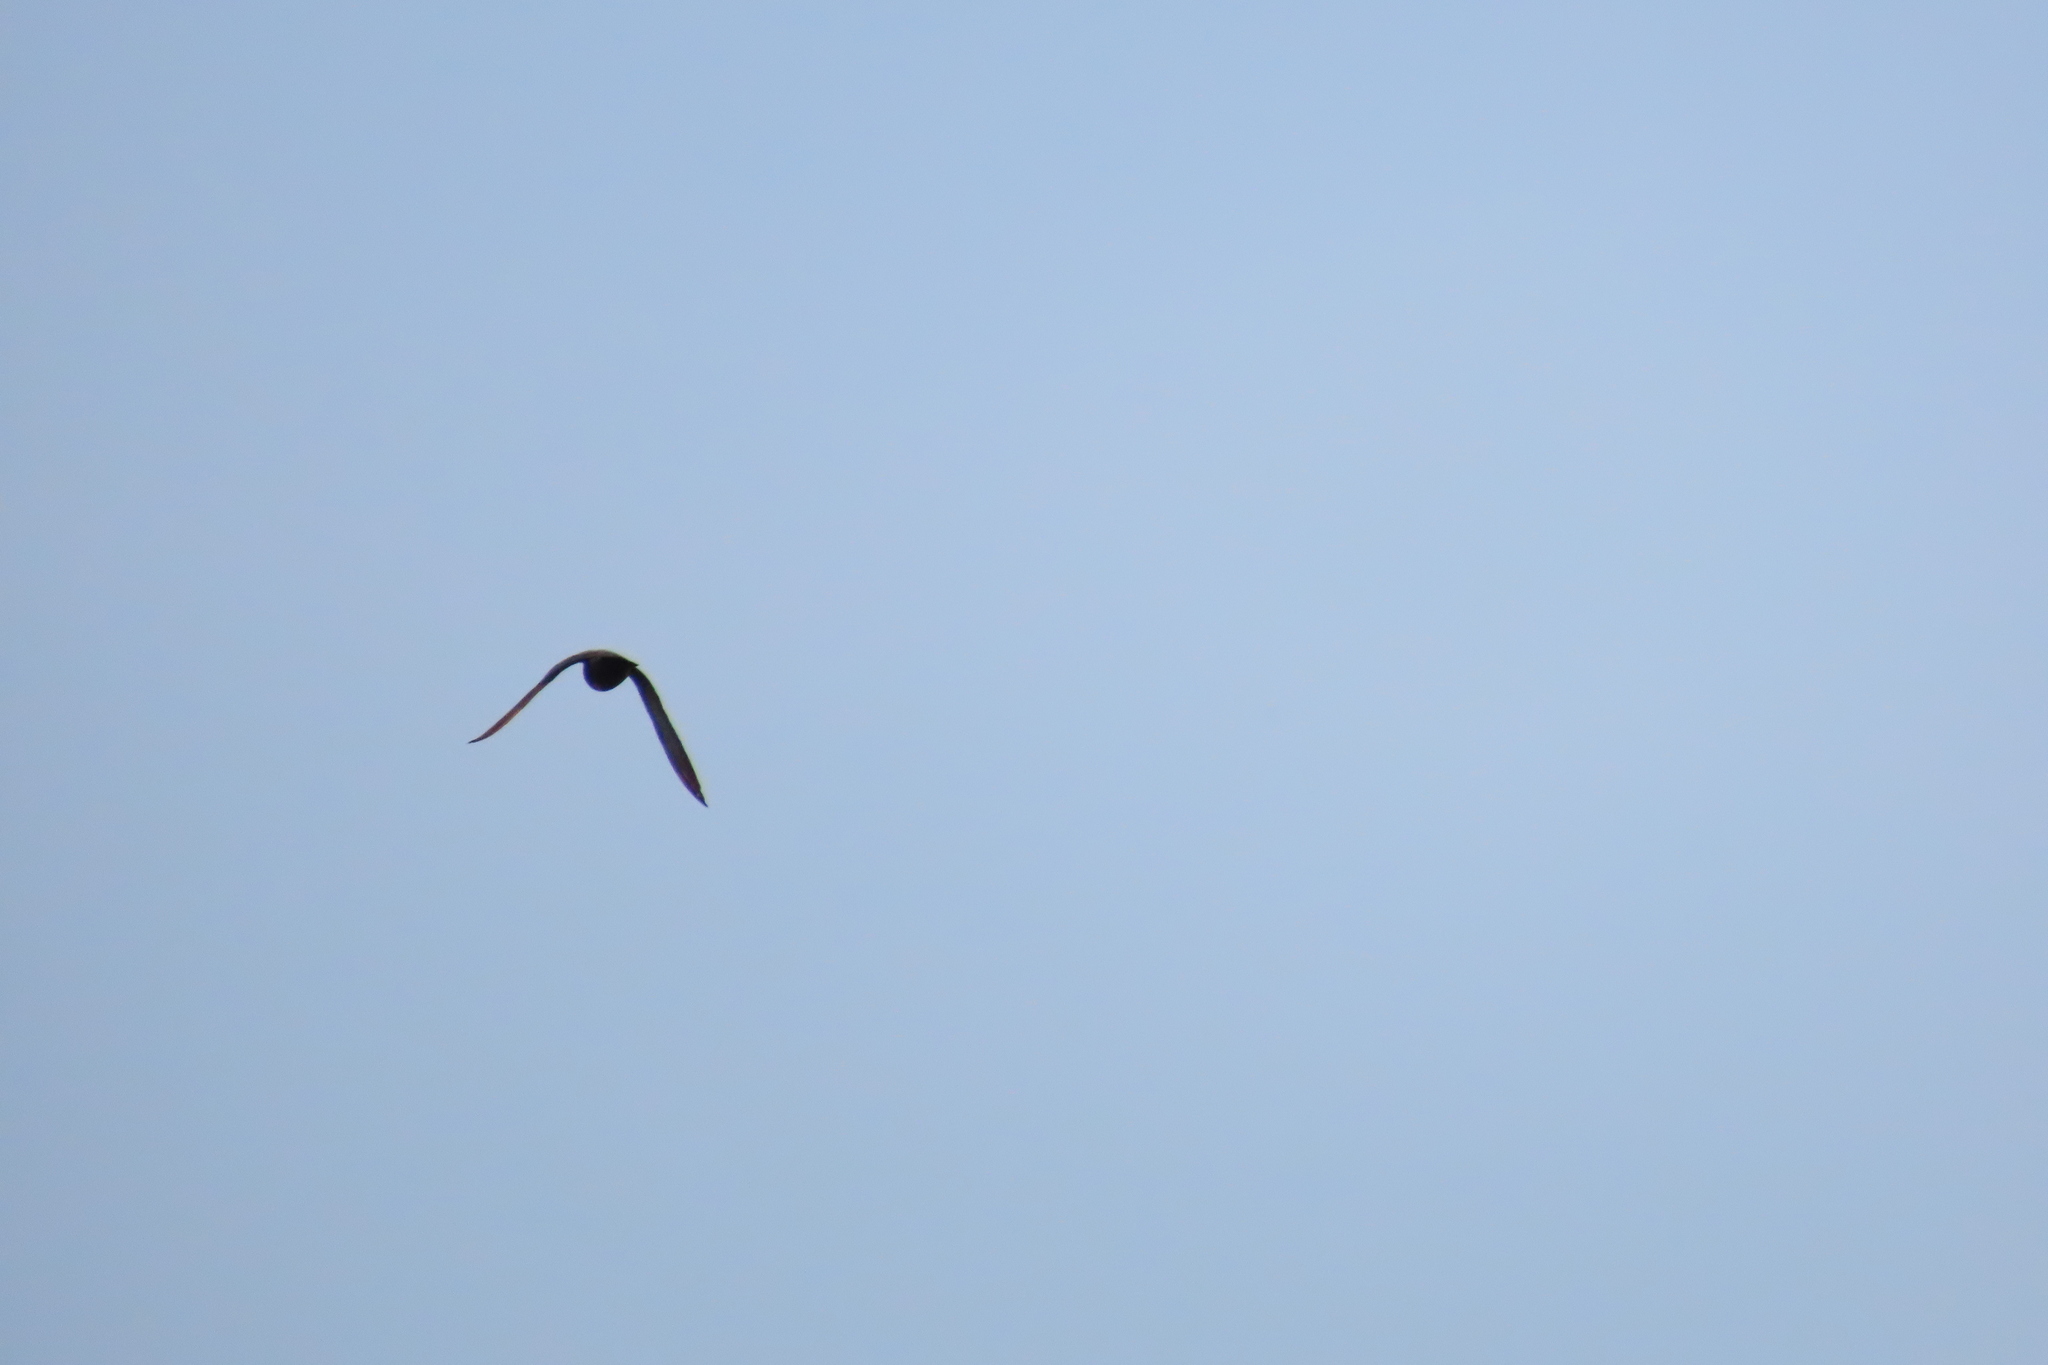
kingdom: Animalia
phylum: Chordata
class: Aves
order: Columbiformes
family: Columbidae
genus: Columba
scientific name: Columba livia
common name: Rock pigeon
